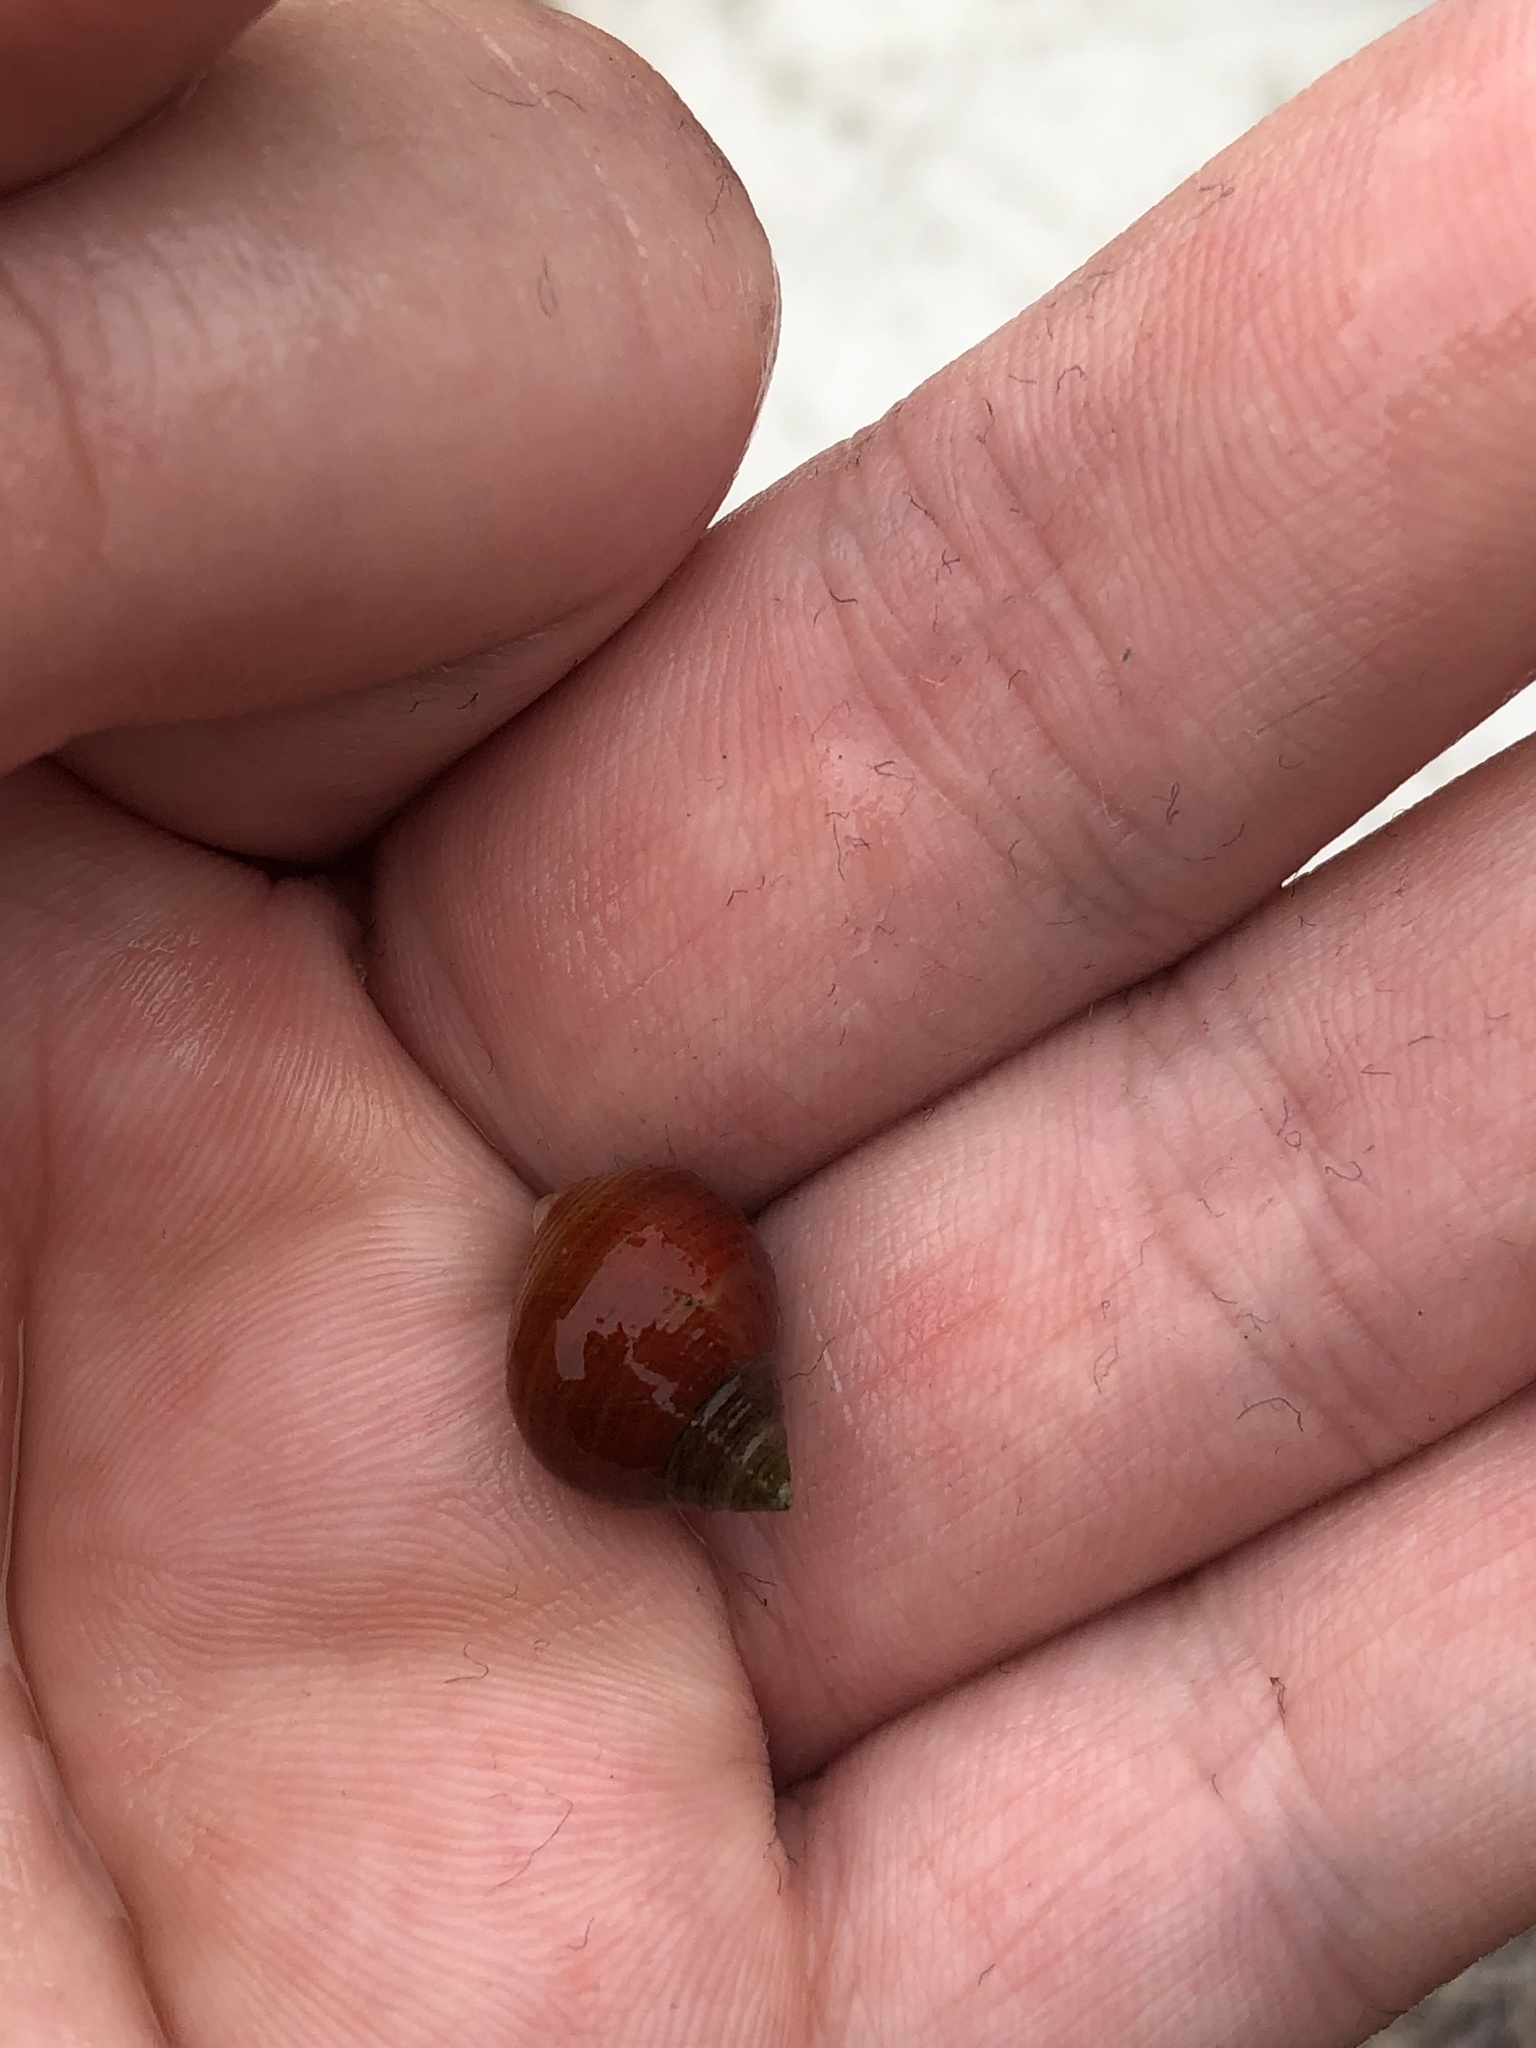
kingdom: Animalia
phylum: Mollusca
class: Gastropoda
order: Littorinimorpha
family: Littorinidae
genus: Littorina
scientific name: Littorina
